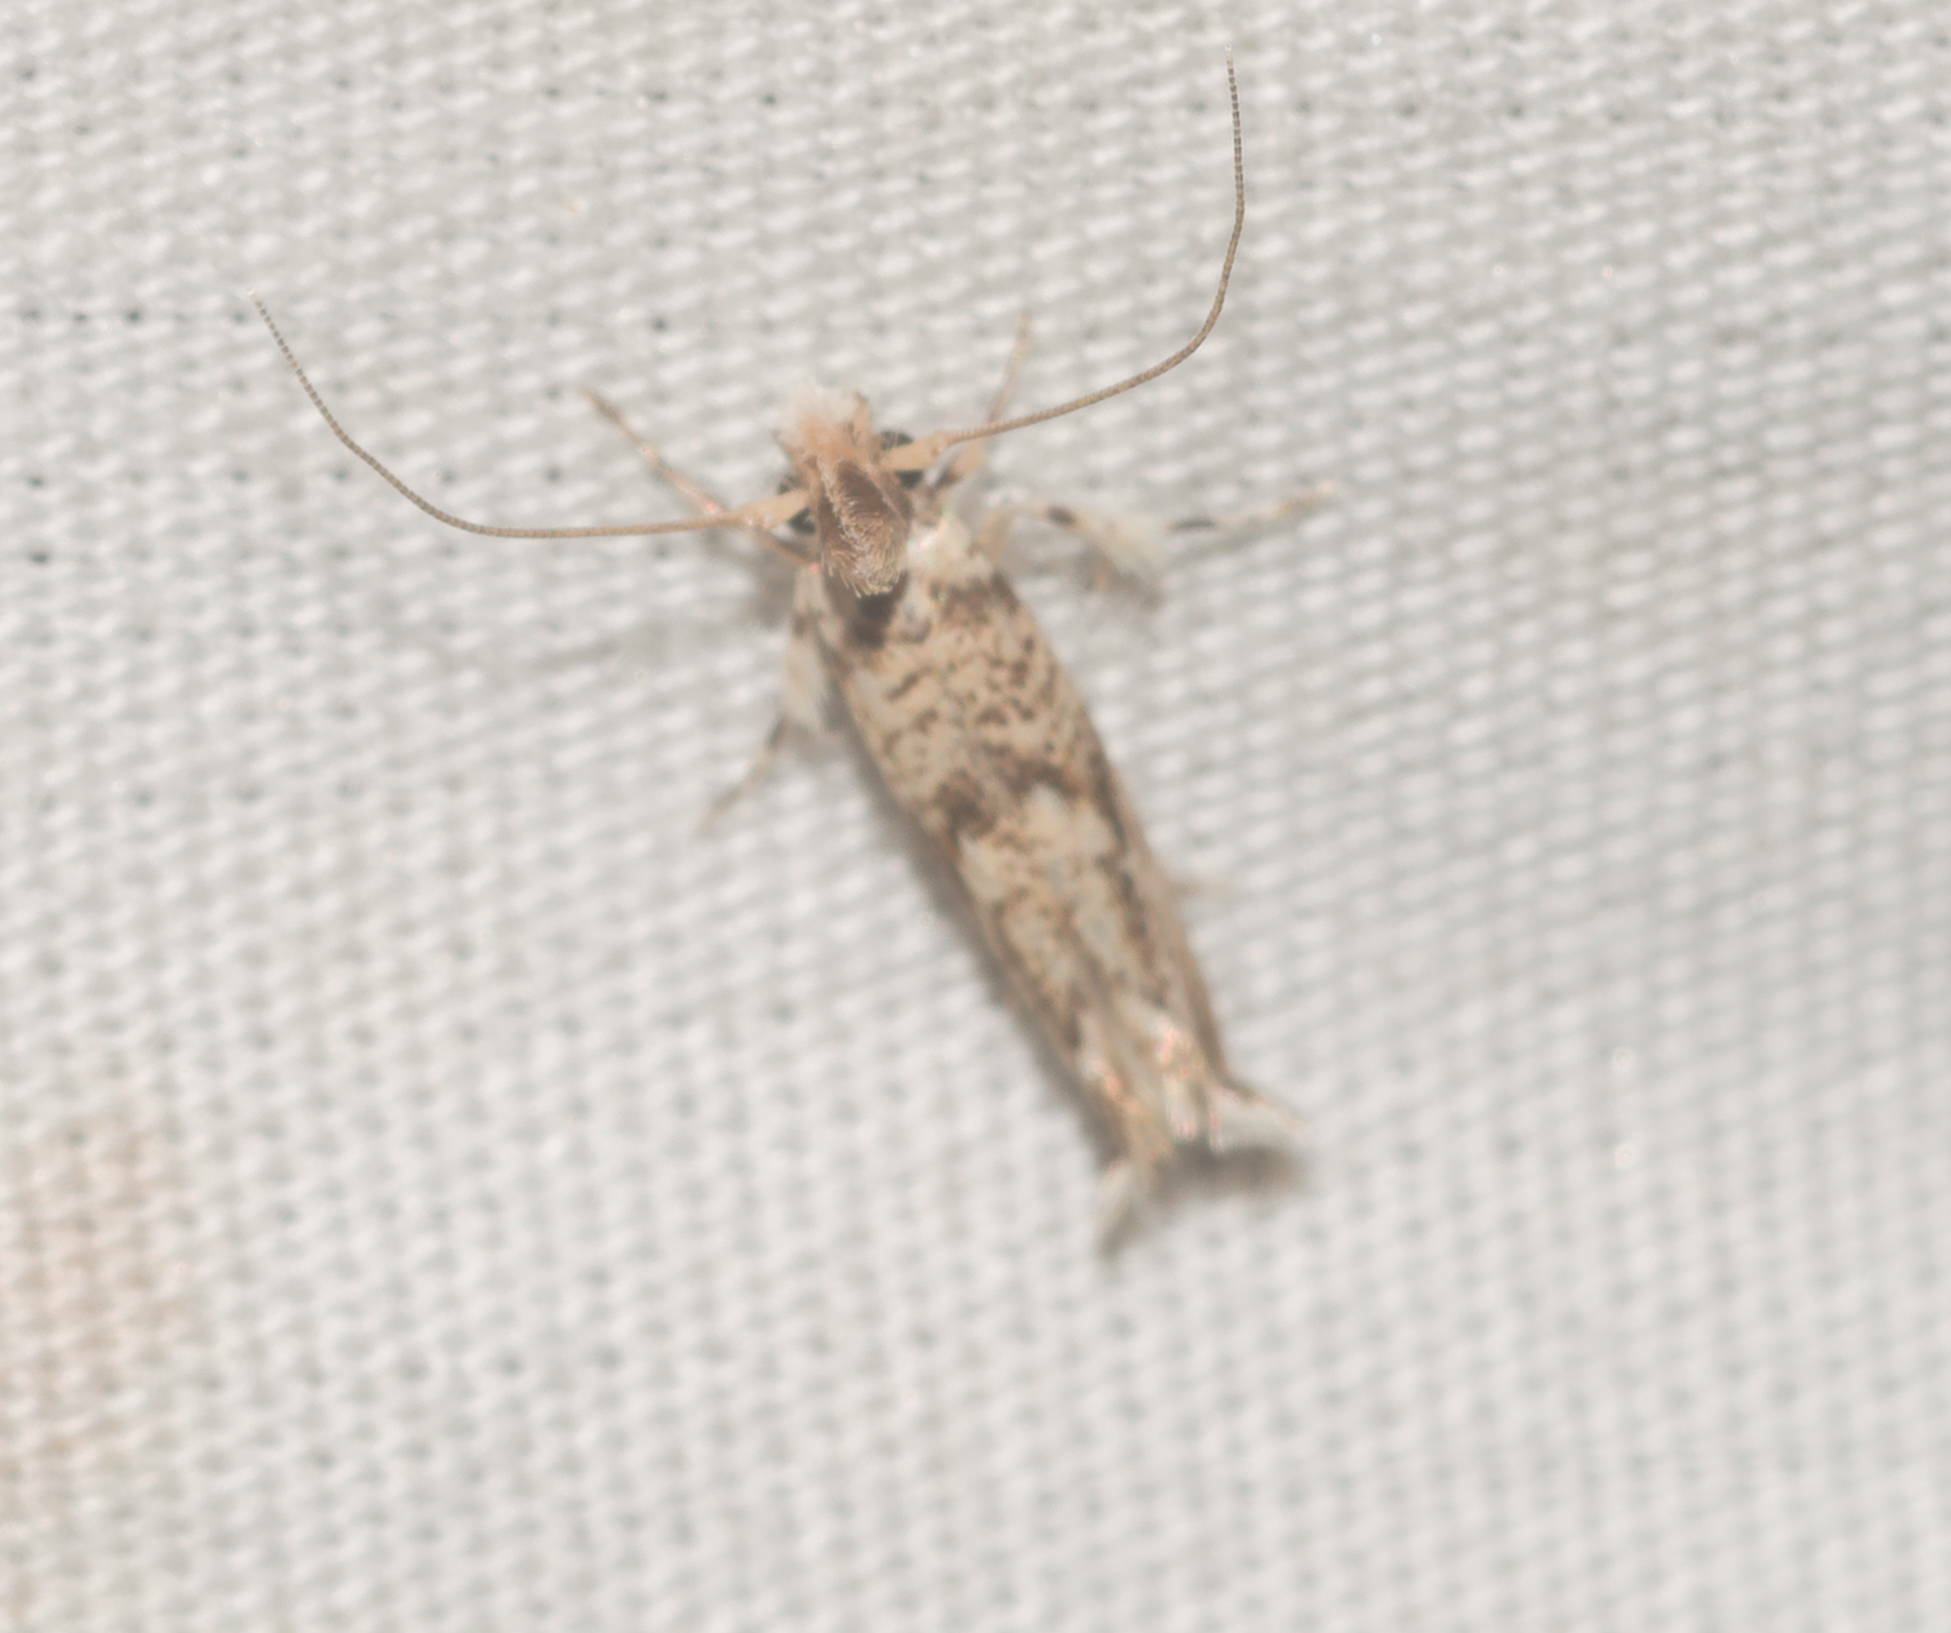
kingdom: Animalia
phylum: Arthropoda
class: Insecta
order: Lepidoptera
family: Tineidae
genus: Erechthias
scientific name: Erechthias pelotricha
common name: Fungus moth
